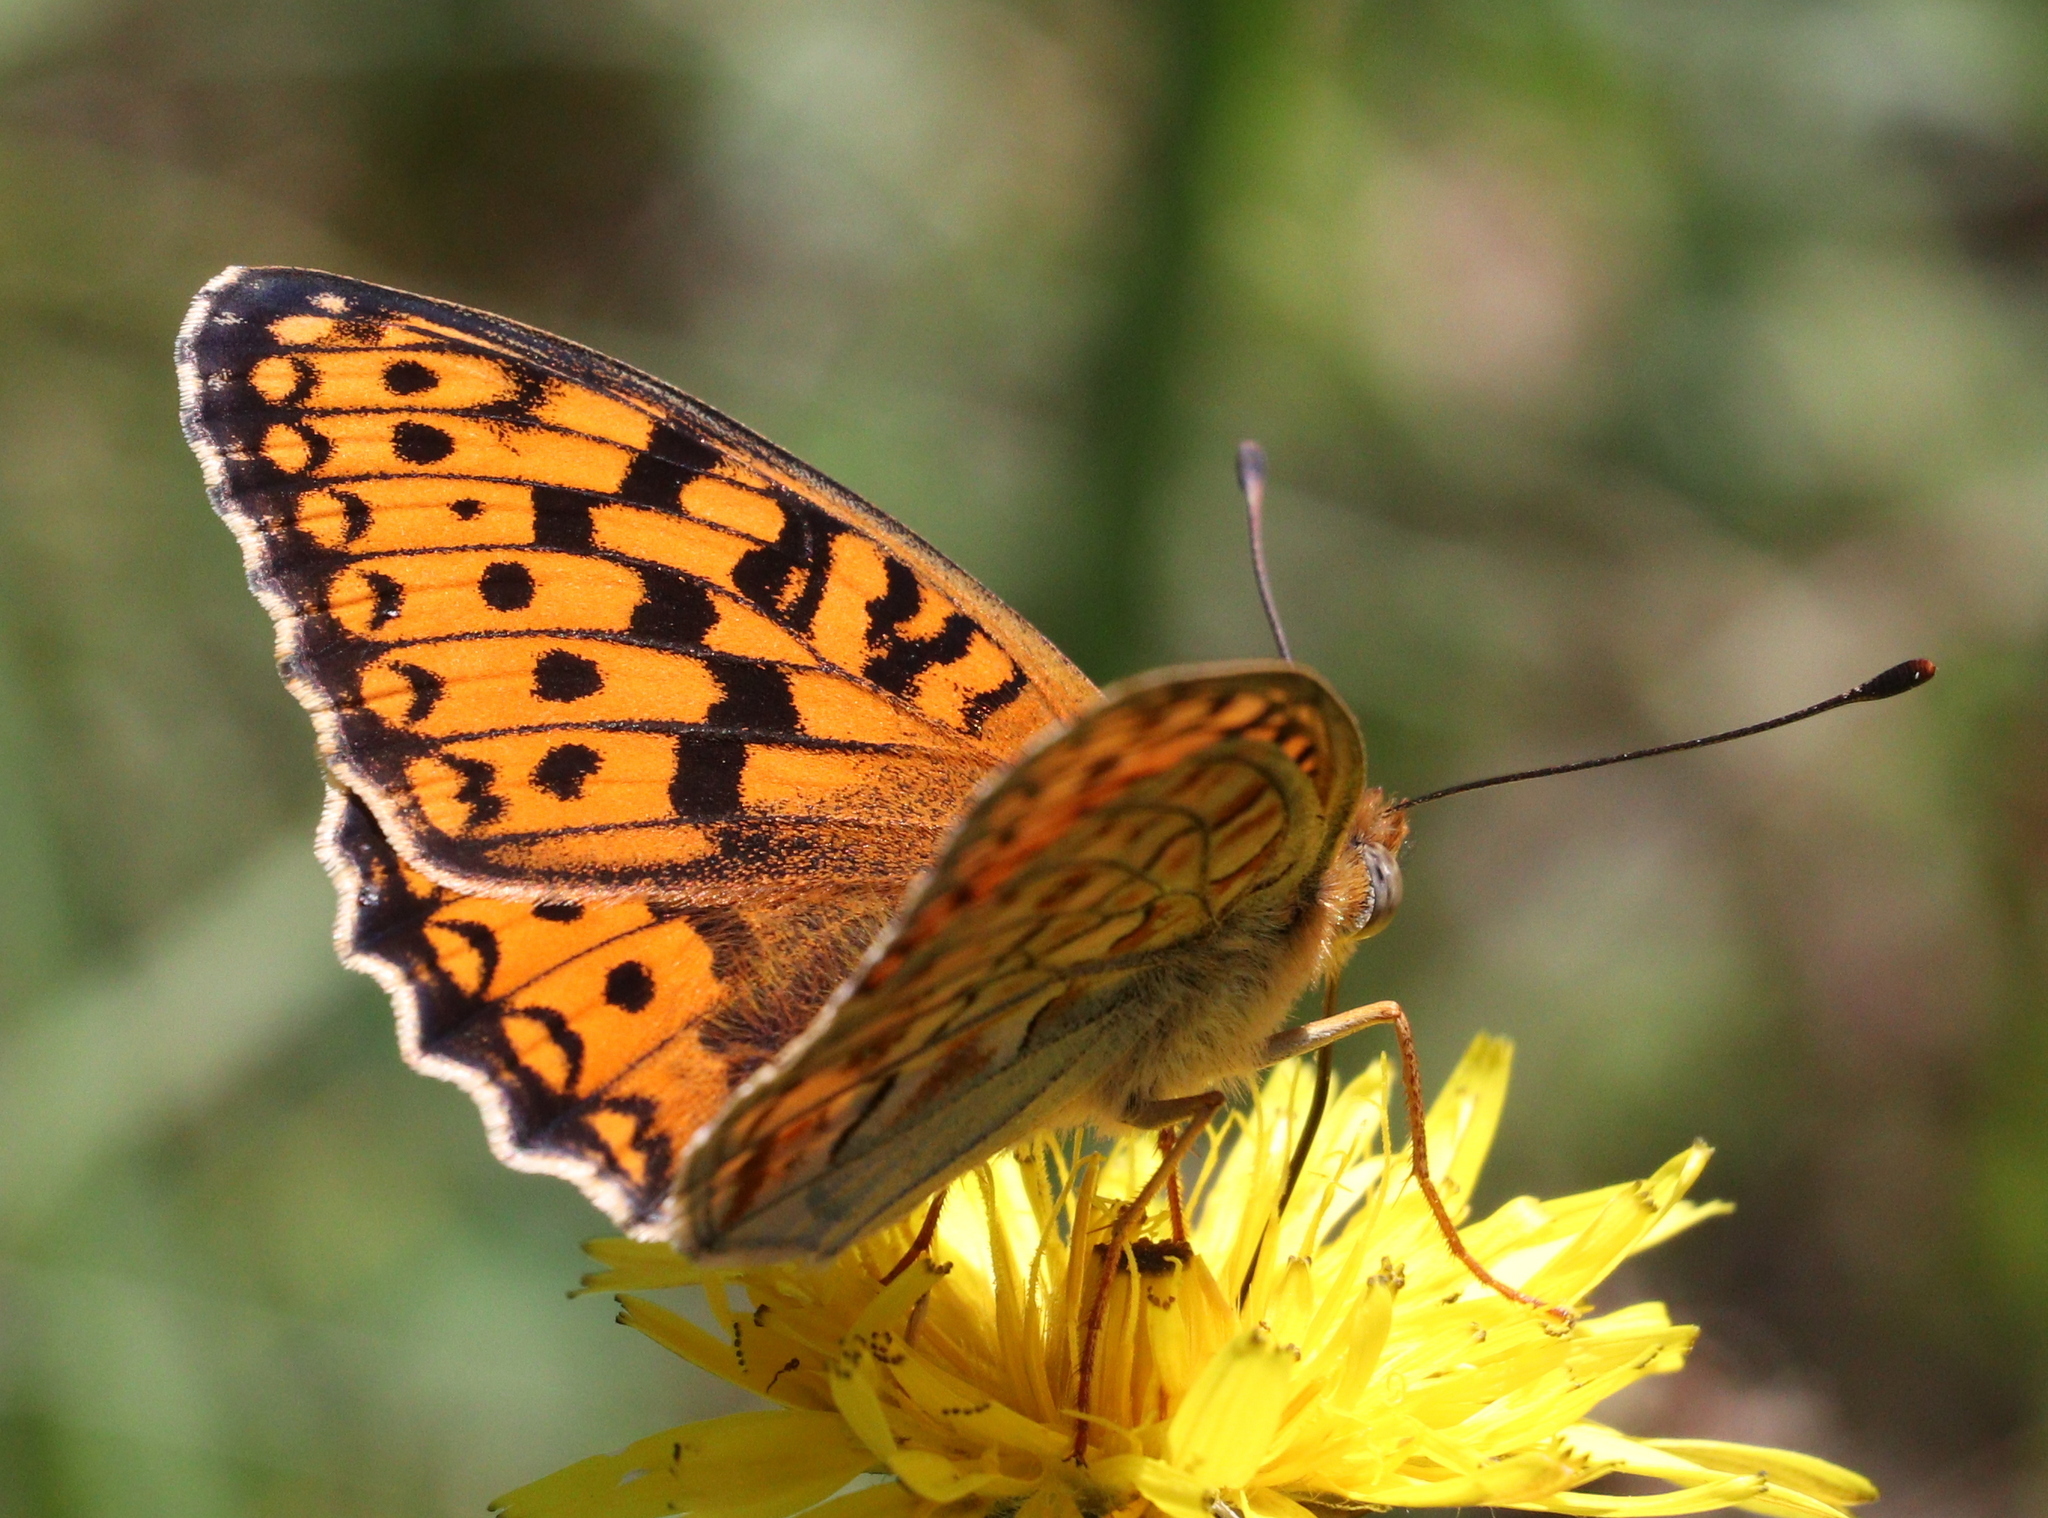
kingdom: Animalia
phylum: Arthropoda
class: Insecta
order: Lepidoptera
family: Nymphalidae
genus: Fabriciana
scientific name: Fabriciana niobe
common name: Niobe fritillary
